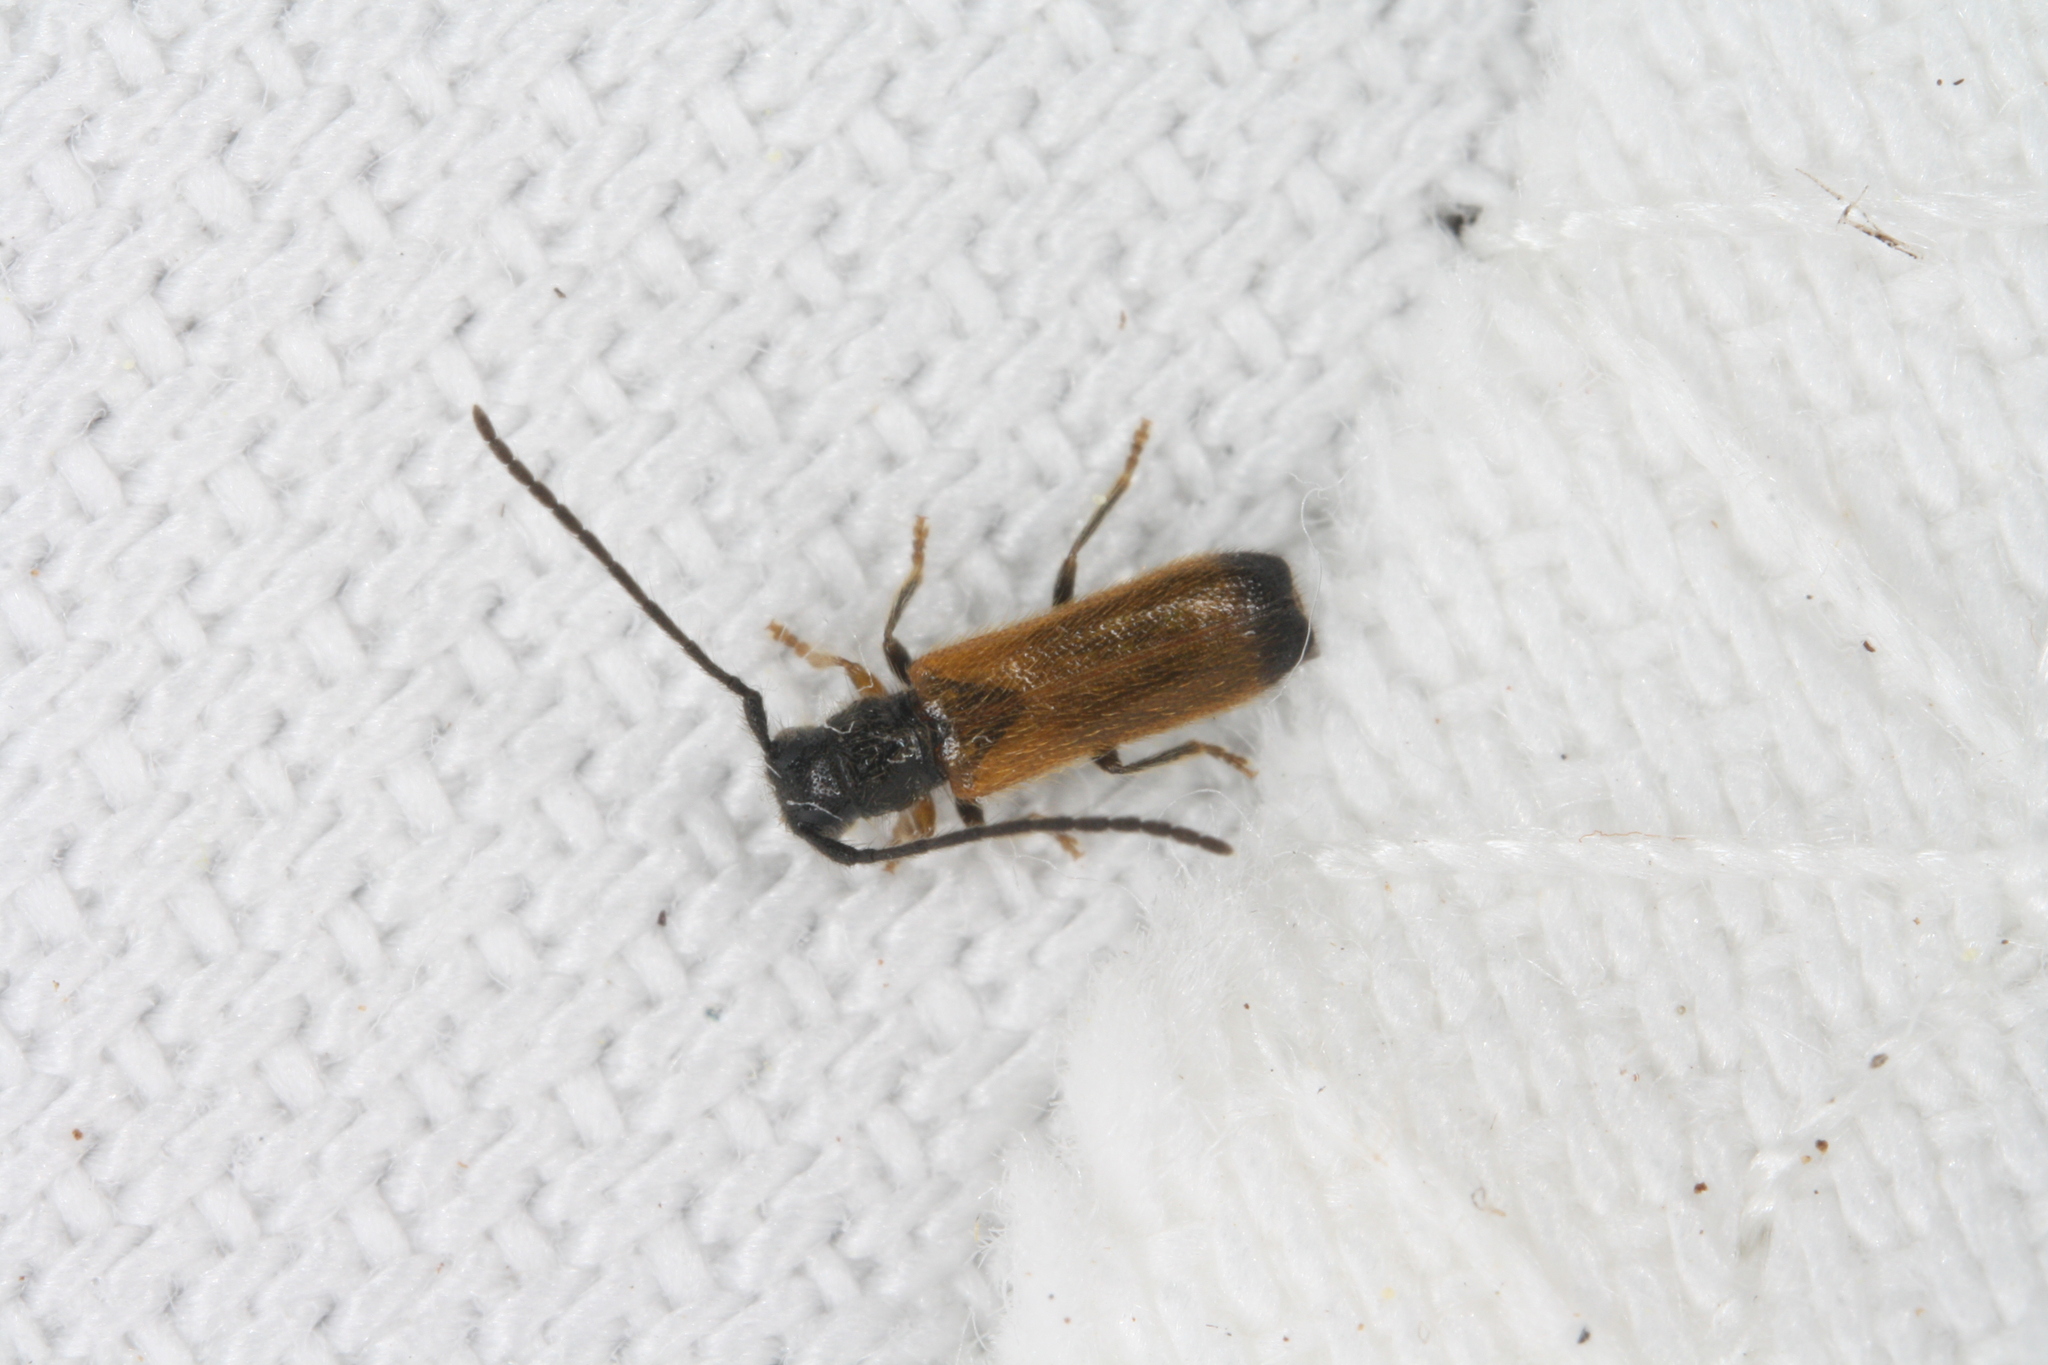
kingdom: Animalia
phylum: Arthropoda
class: Insecta
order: Coleoptera
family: Cerambycidae
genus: Tetrops
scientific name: Tetrops praeustus
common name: Plum beetle
